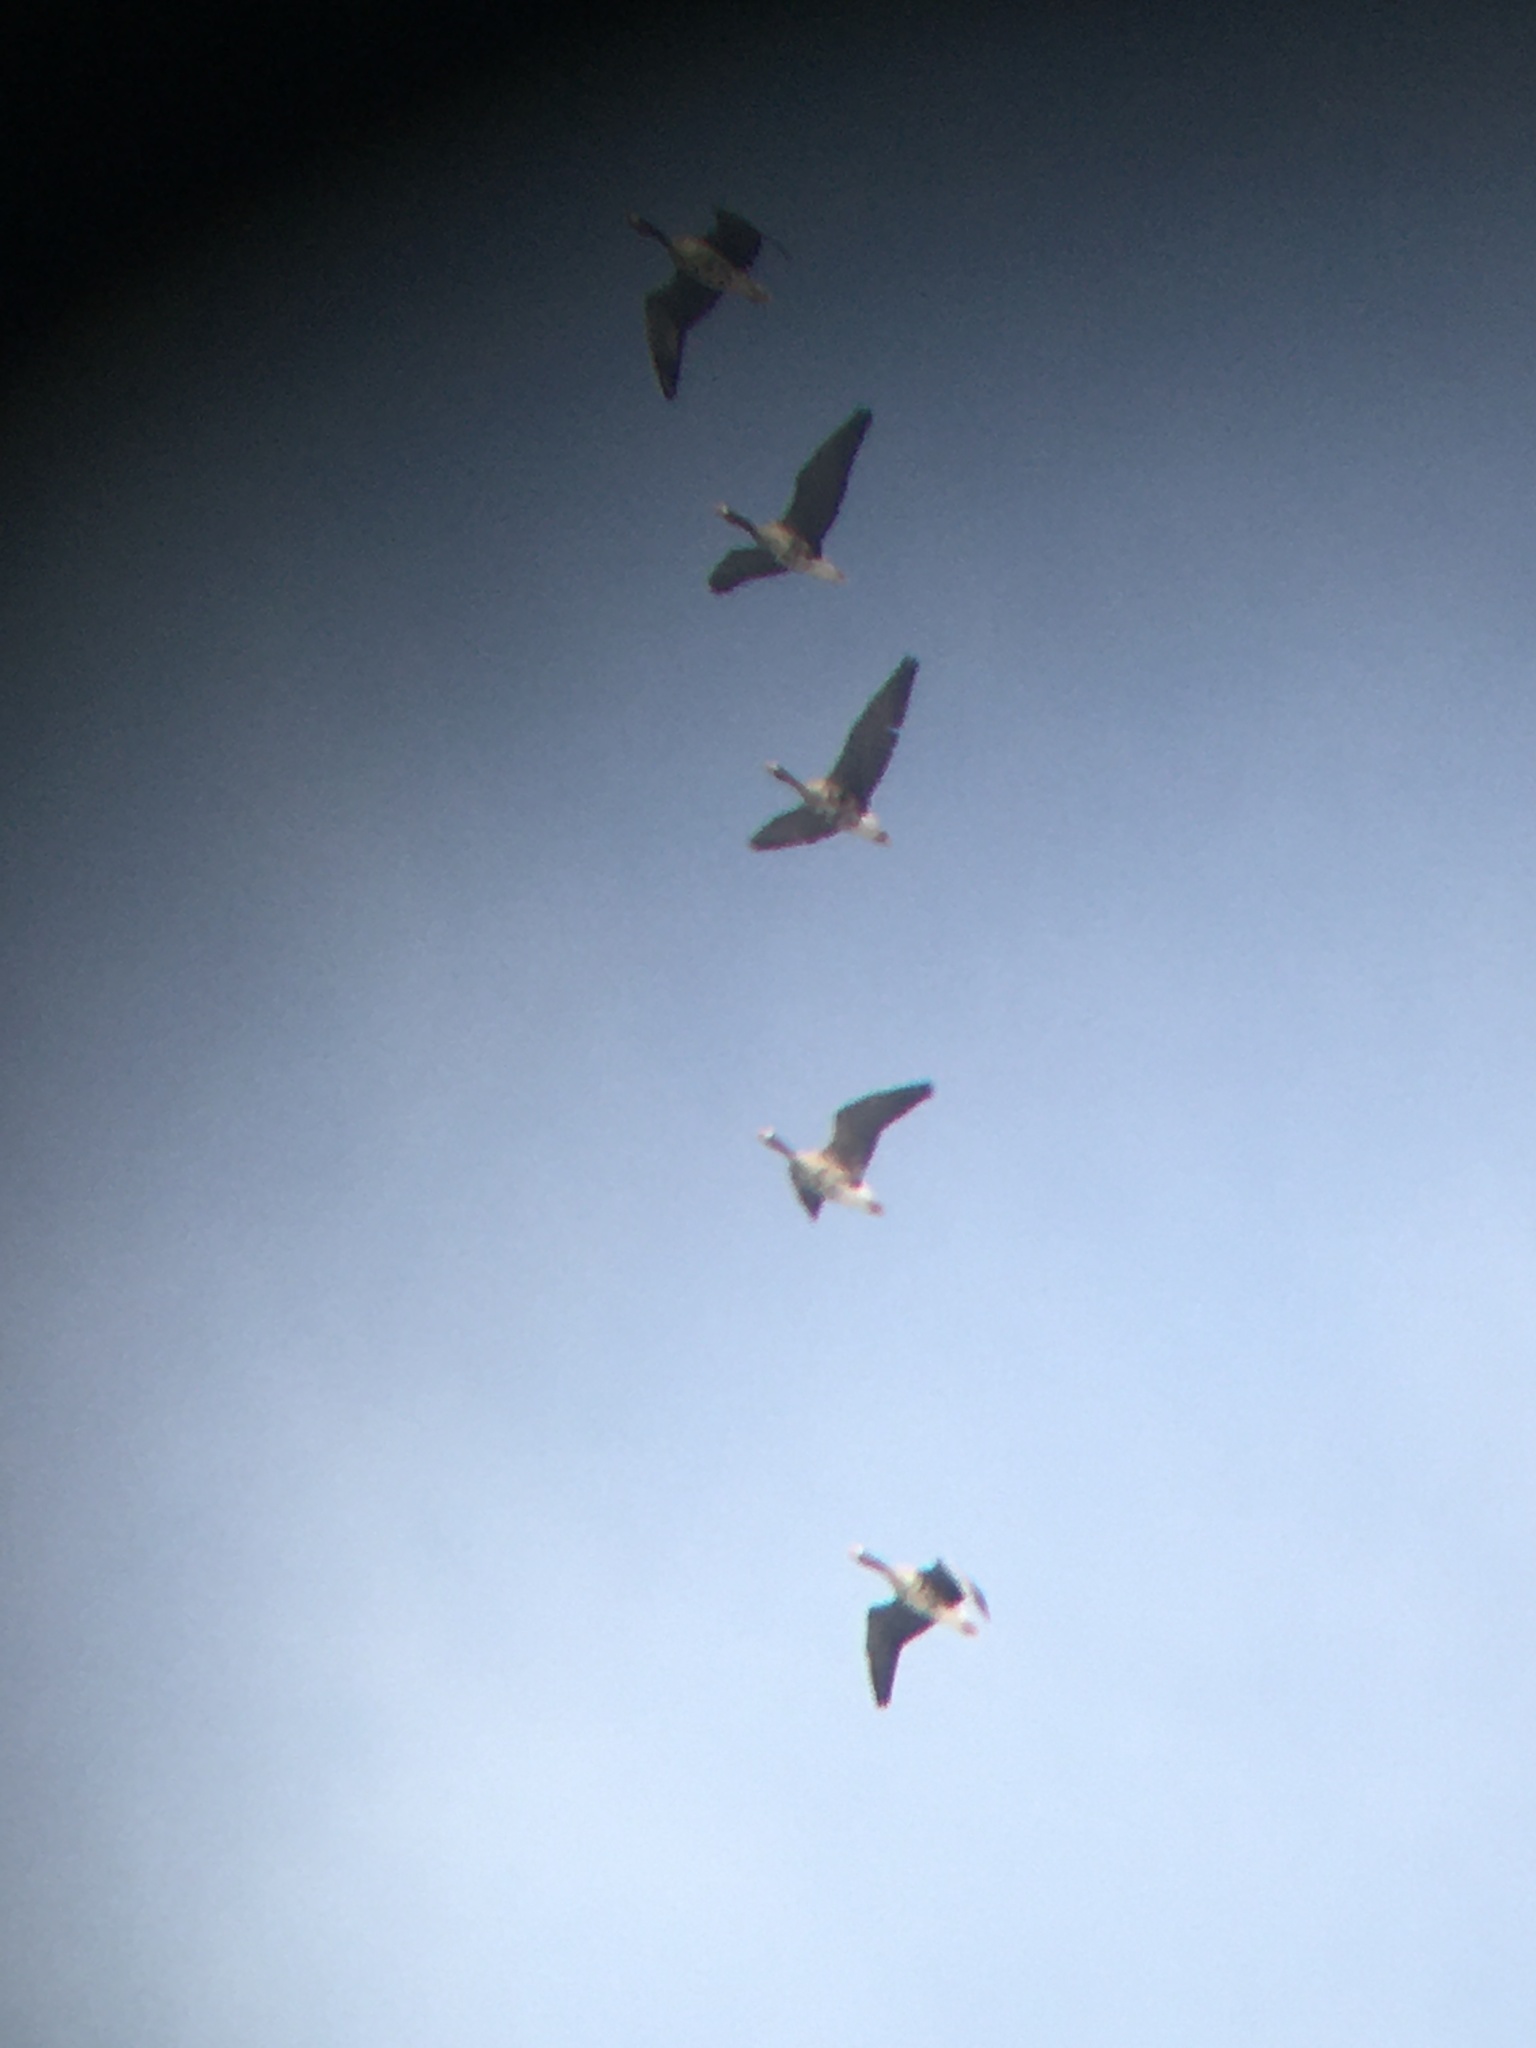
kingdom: Animalia
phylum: Chordata
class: Aves
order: Anseriformes
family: Anatidae
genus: Anser
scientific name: Anser albifrons
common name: Greater white-fronted goose
